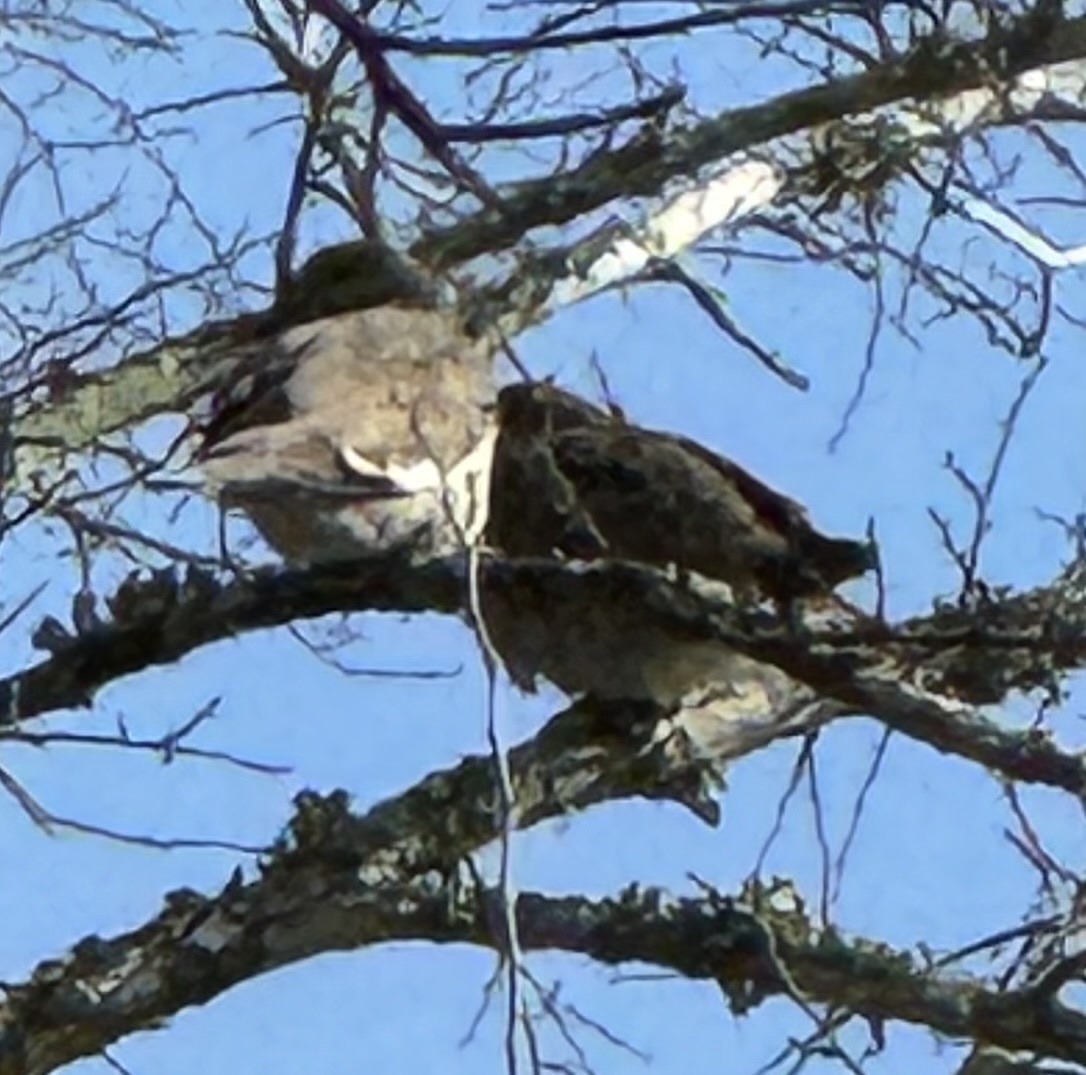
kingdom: Animalia
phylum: Chordata
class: Aves
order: Columbiformes
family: Columbidae
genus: Zenaida
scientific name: Zenaida asiatica
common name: White-winged dove
